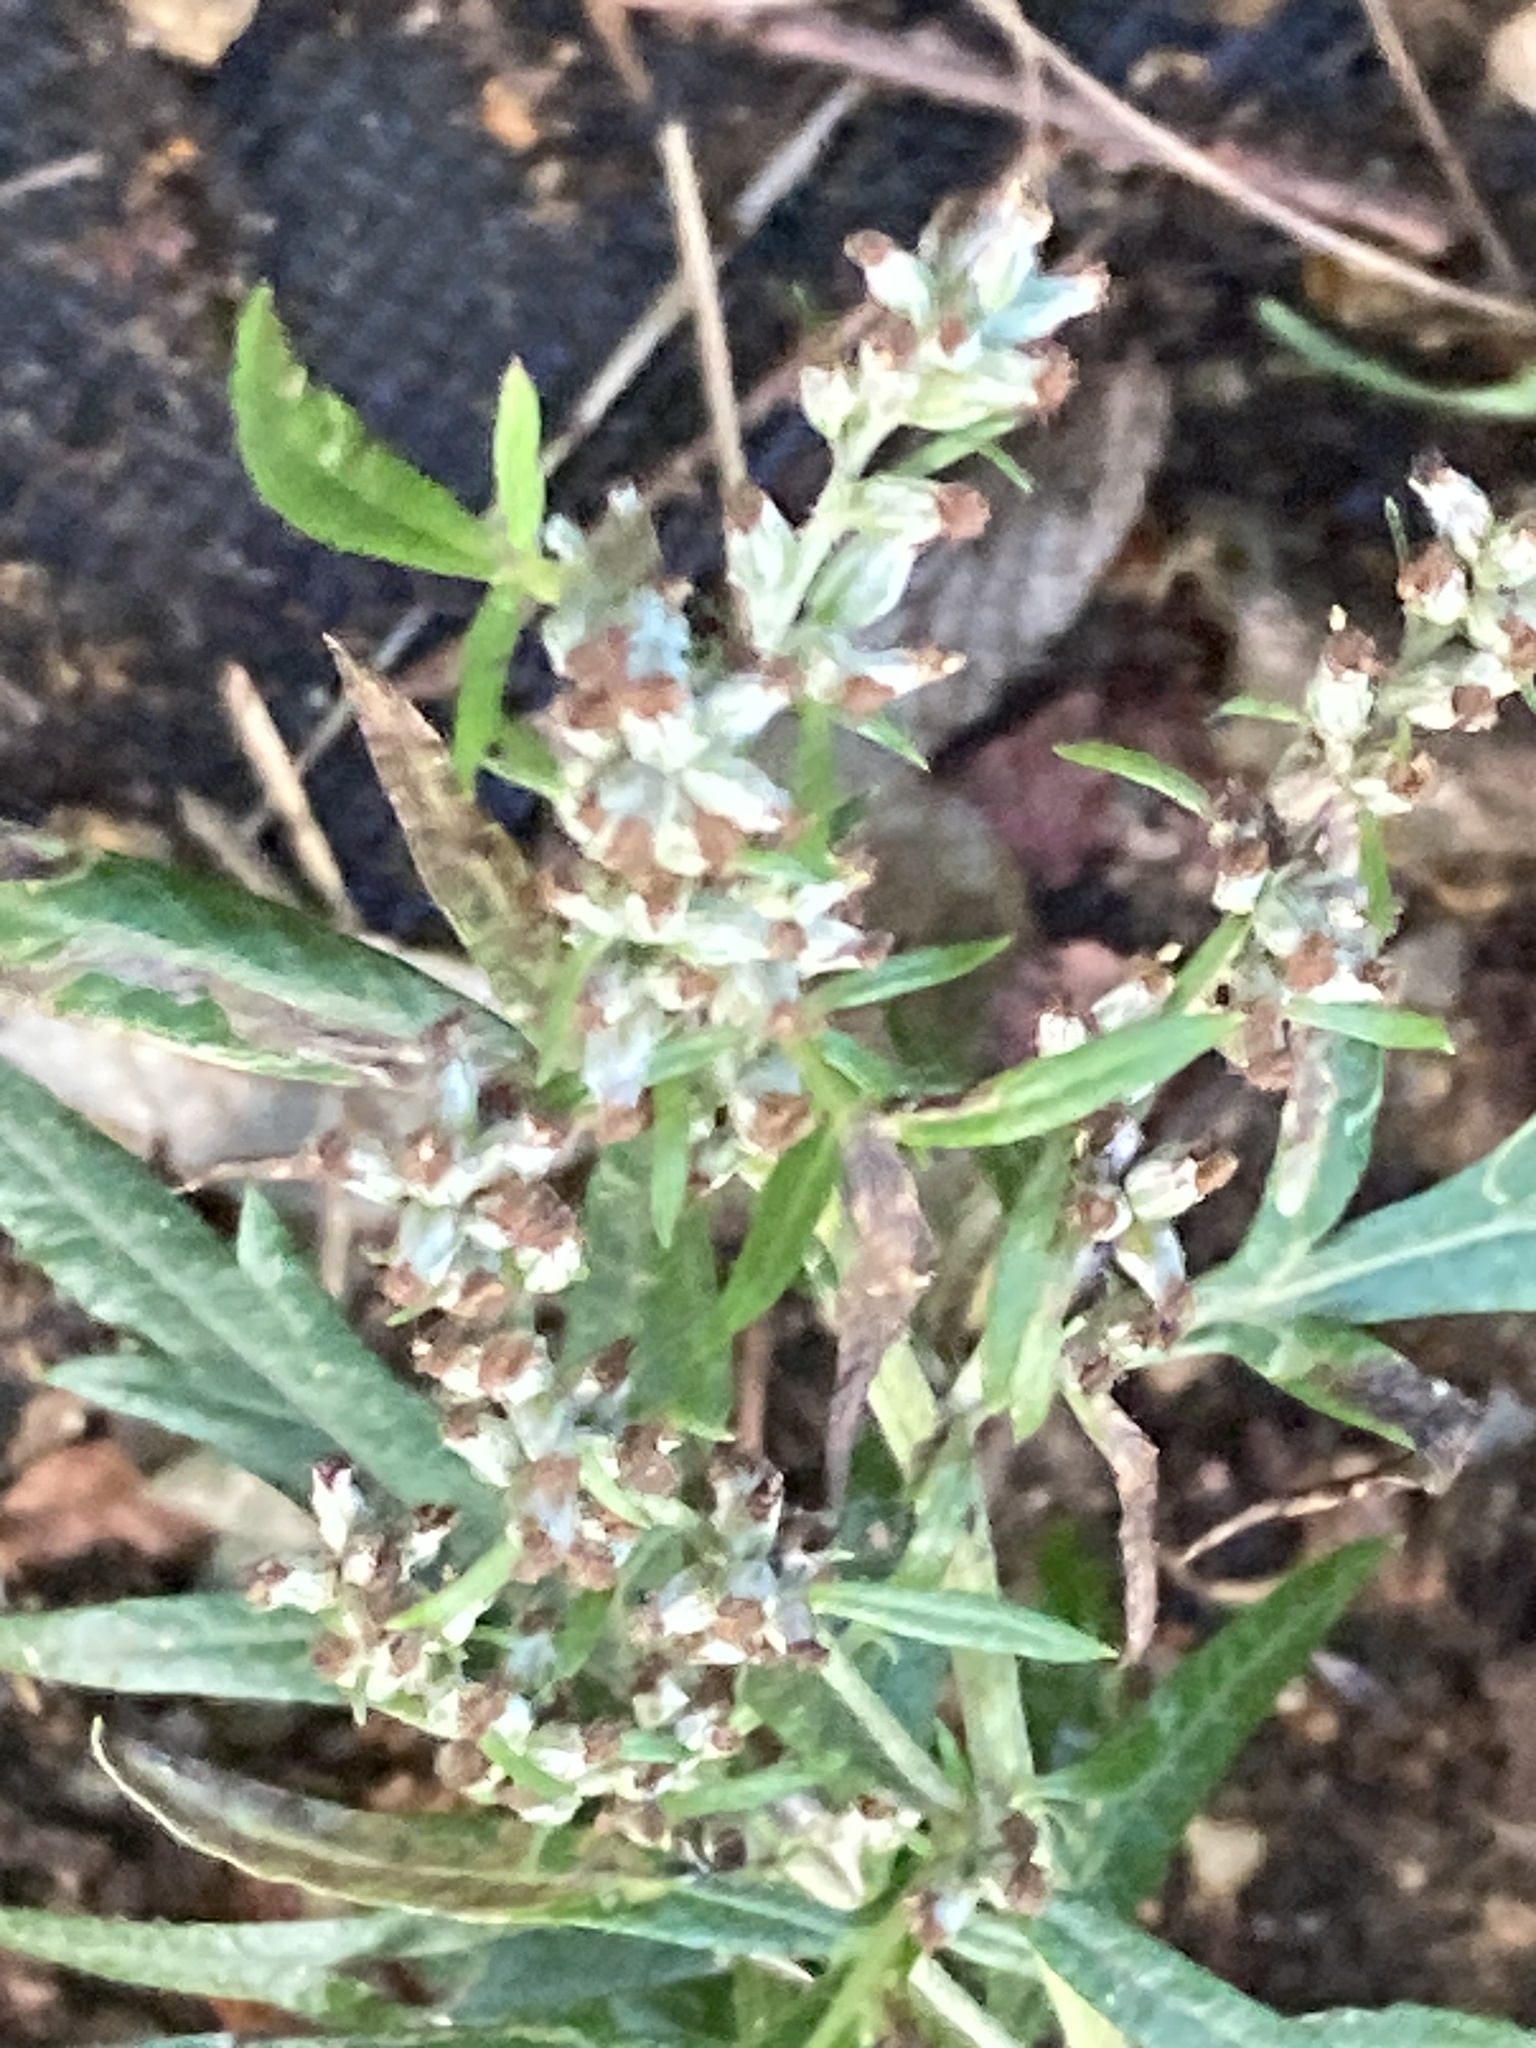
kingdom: Plantae
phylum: Tracheophyta
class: Magnoliopsida
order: Asterales
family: Asteraceae
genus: Artemisia
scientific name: Artemisia vulgaris
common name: Mugwort
